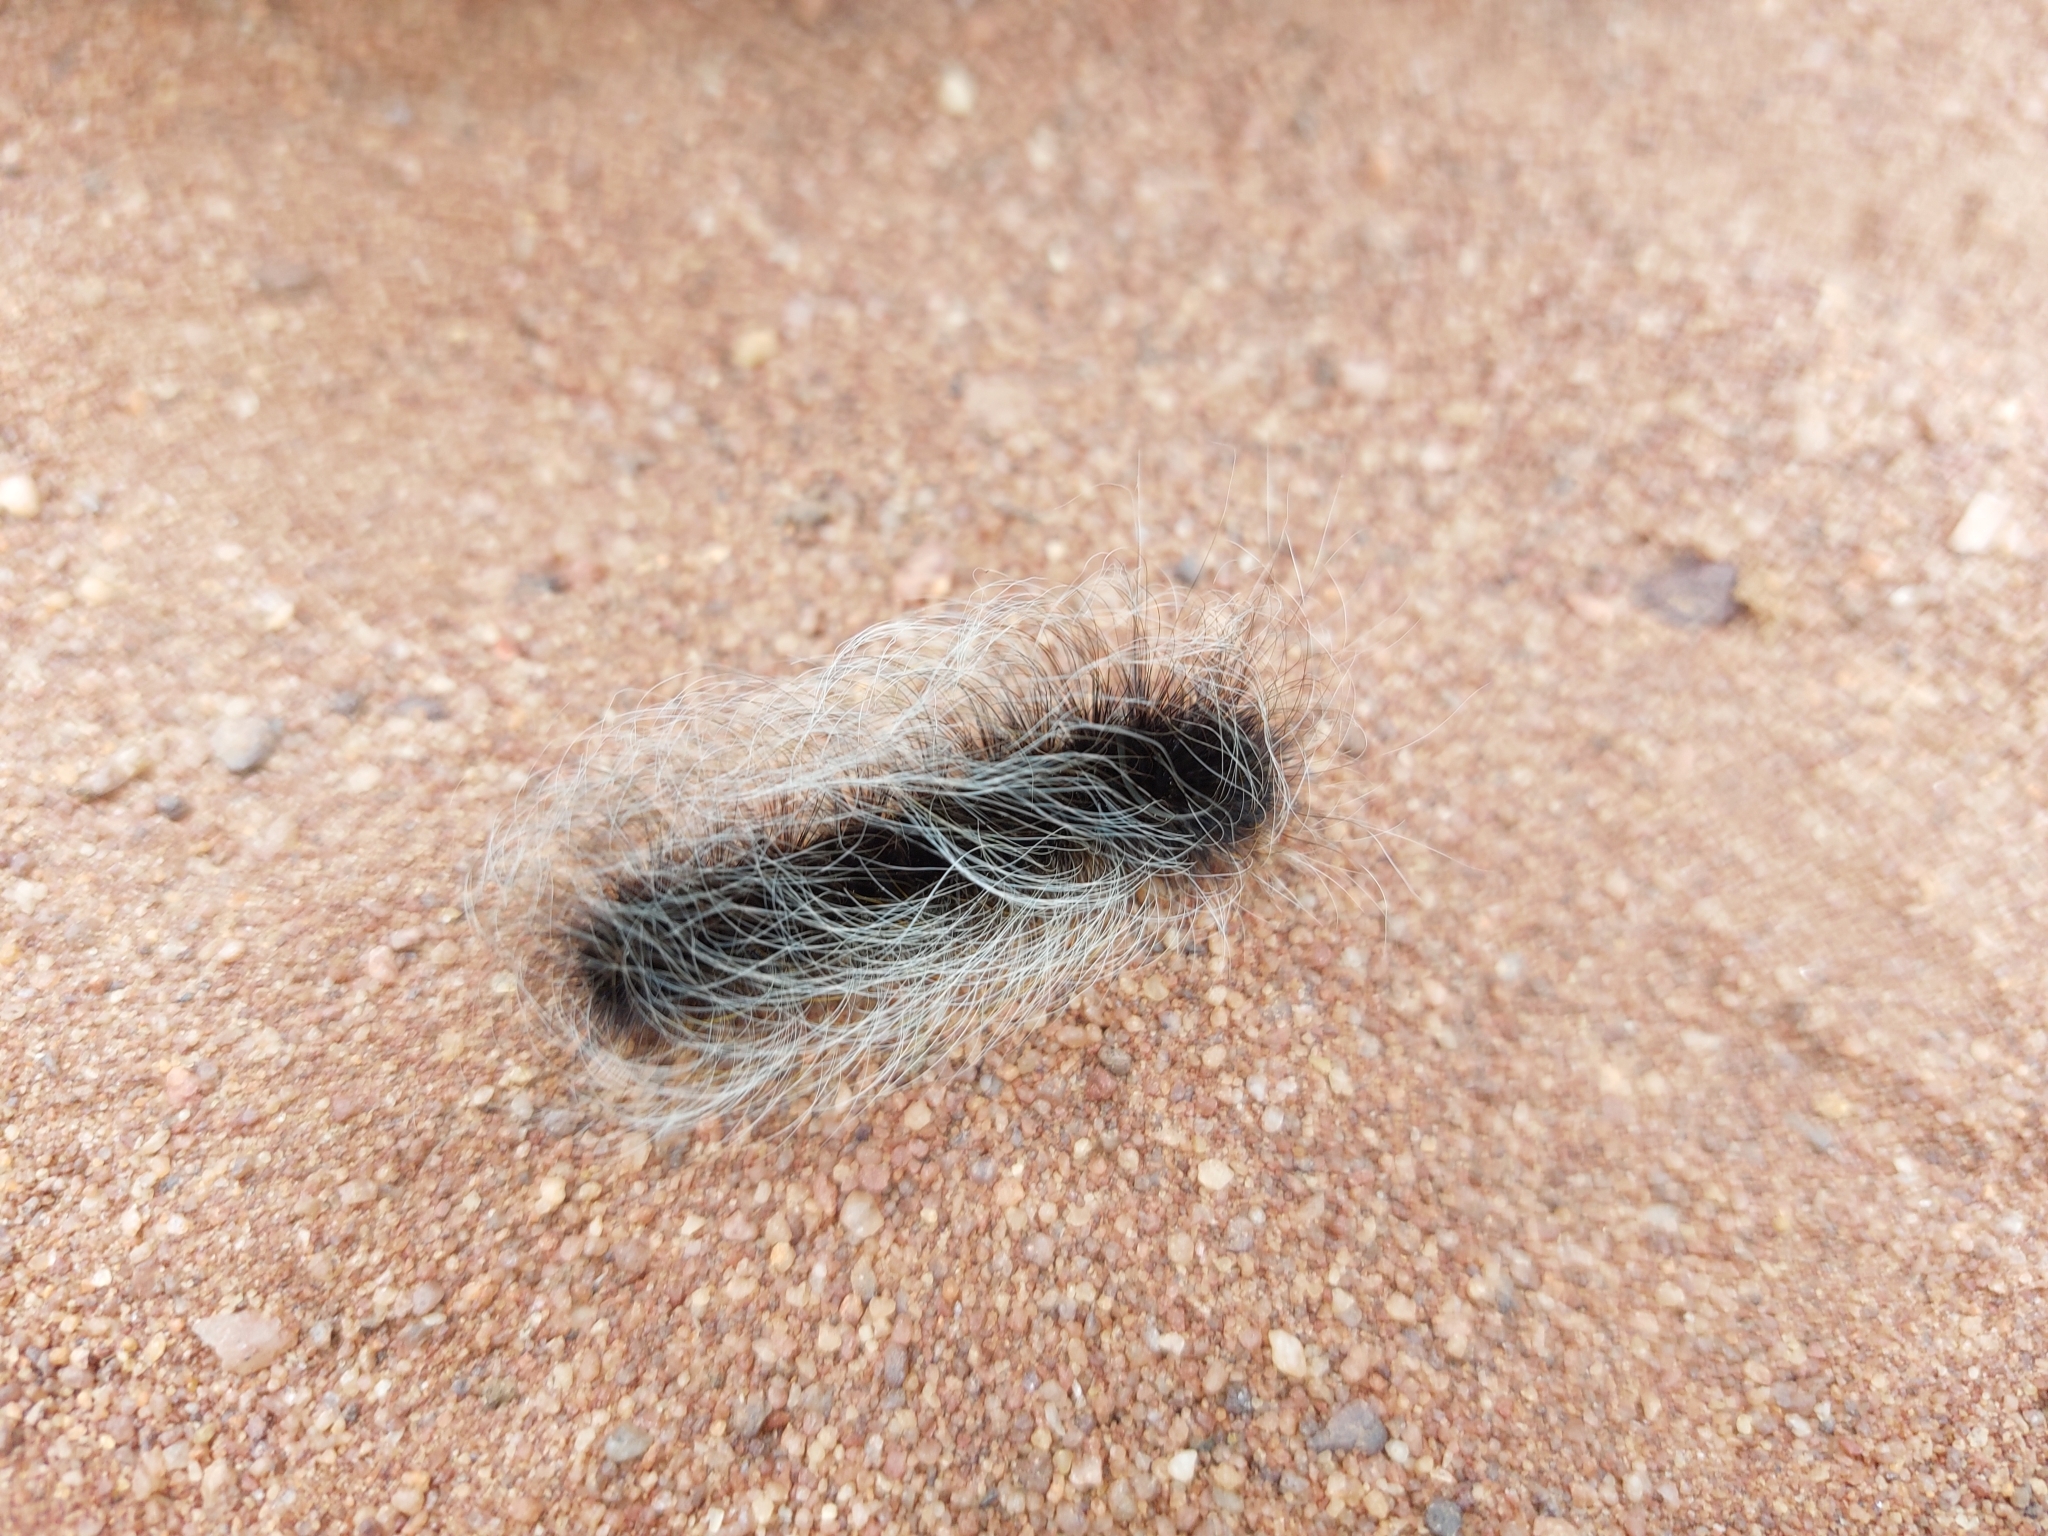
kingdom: Animalia
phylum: Arthropoda
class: Insecta
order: Lepidoptera
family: Eupterotidae
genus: Janomima
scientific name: Janomima mariana
